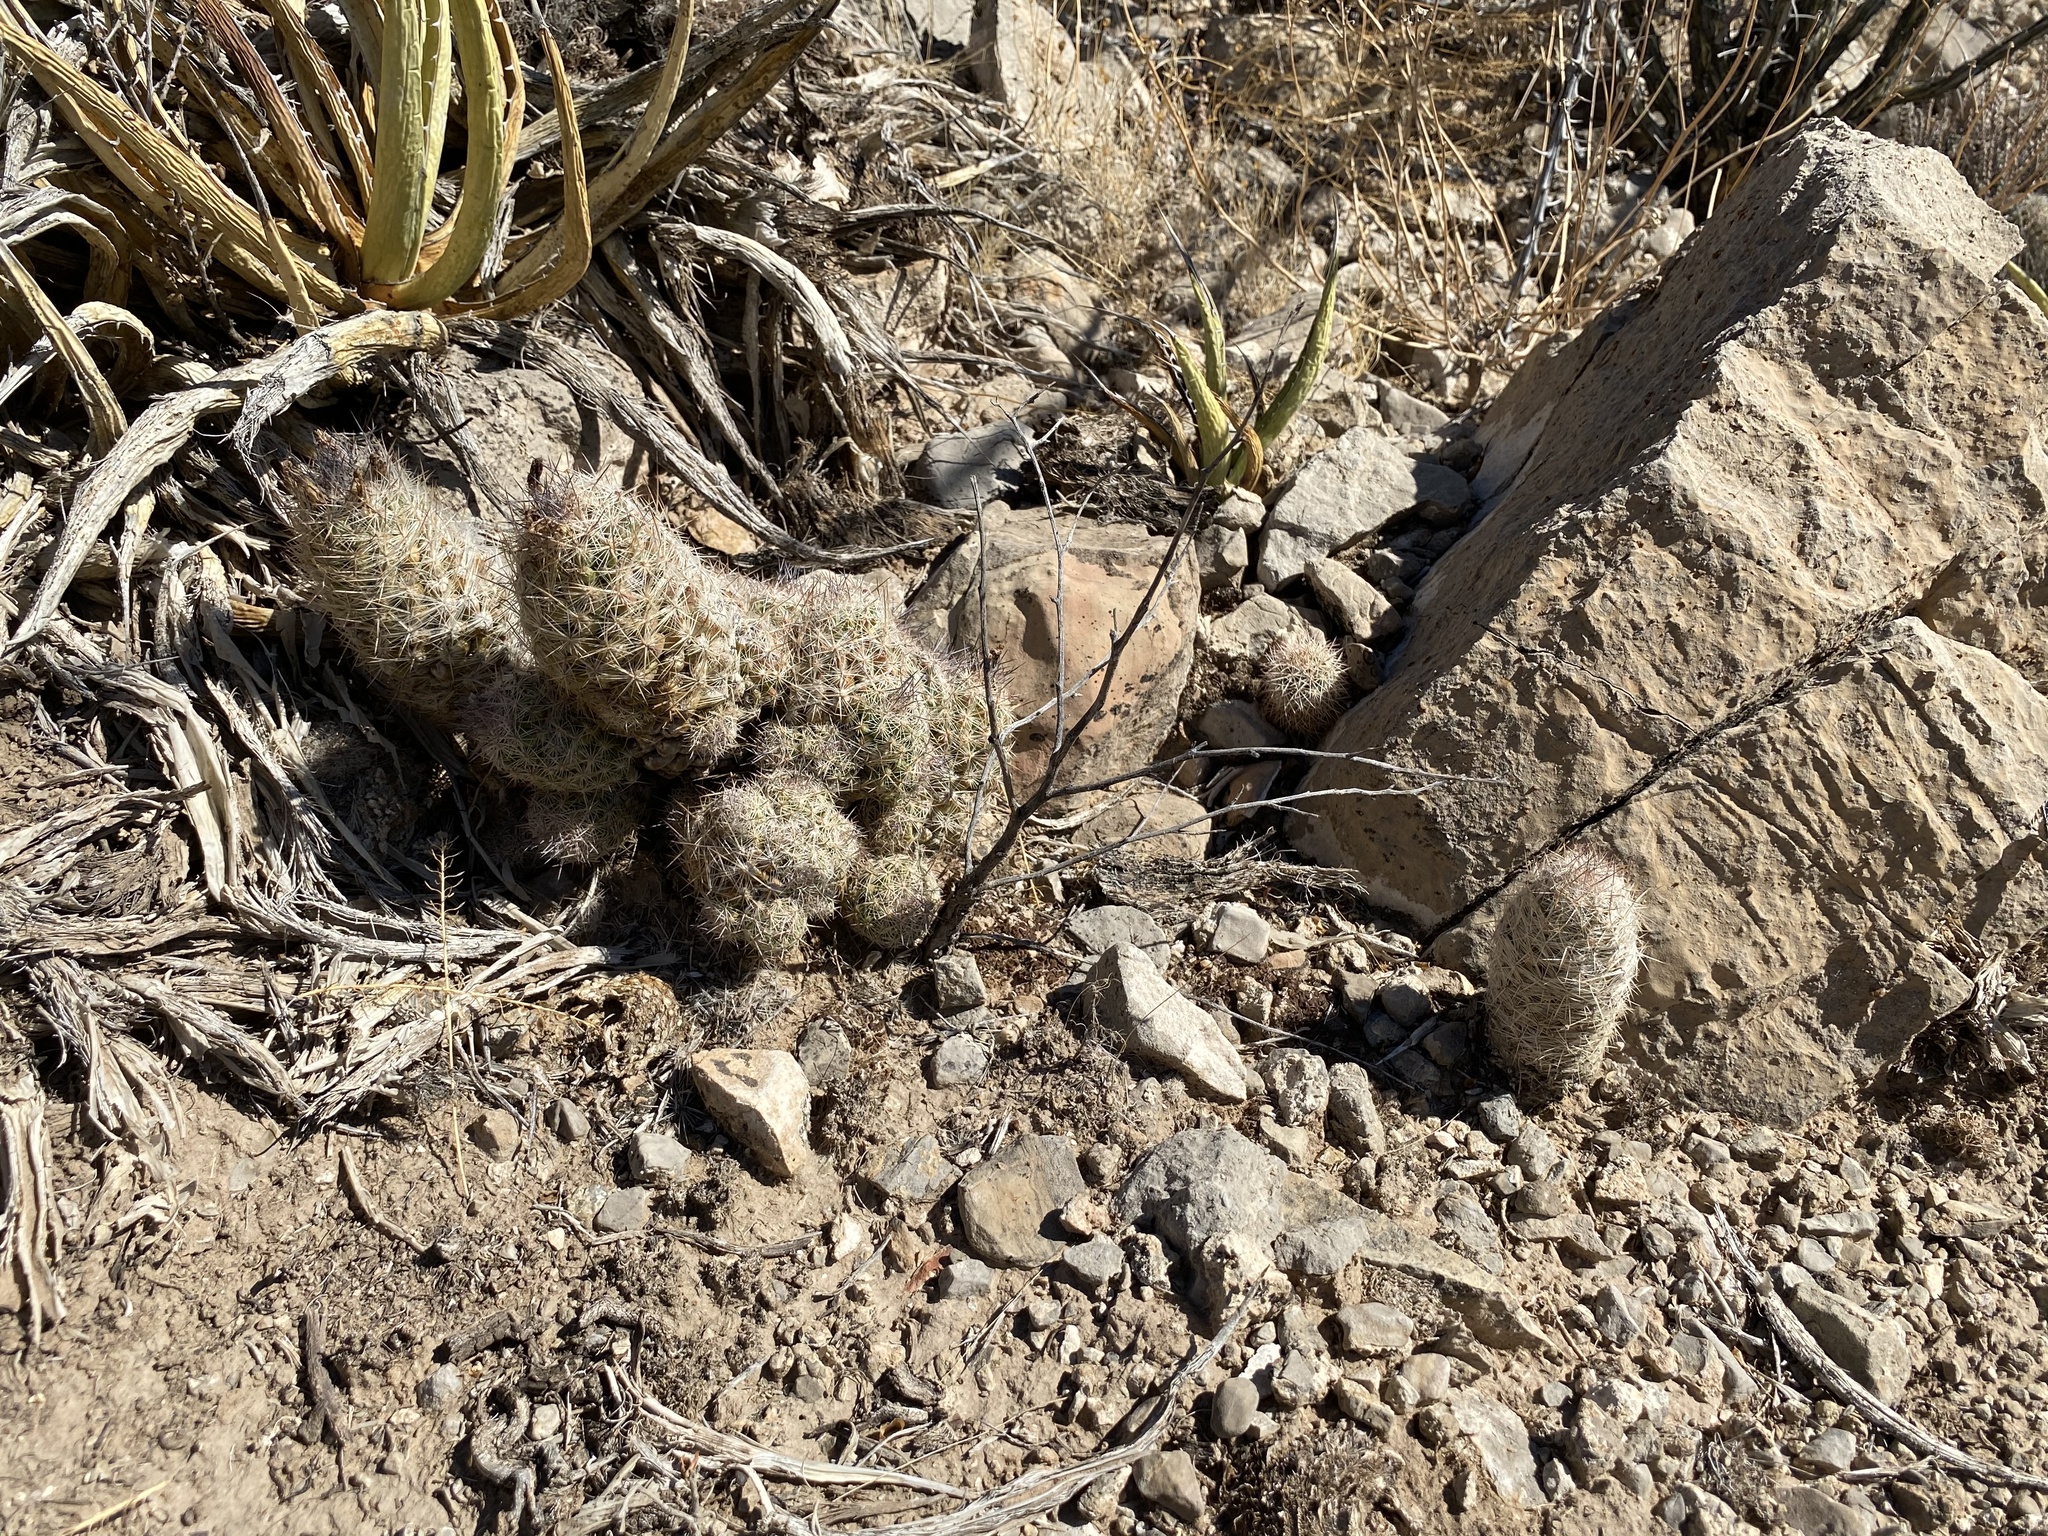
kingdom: Plantae
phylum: Tracheophyta
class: Magnoliopsida
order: Caryophyllales
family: Cactaceae
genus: Pelecyphora
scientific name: Pelecyphora tuberculosa
